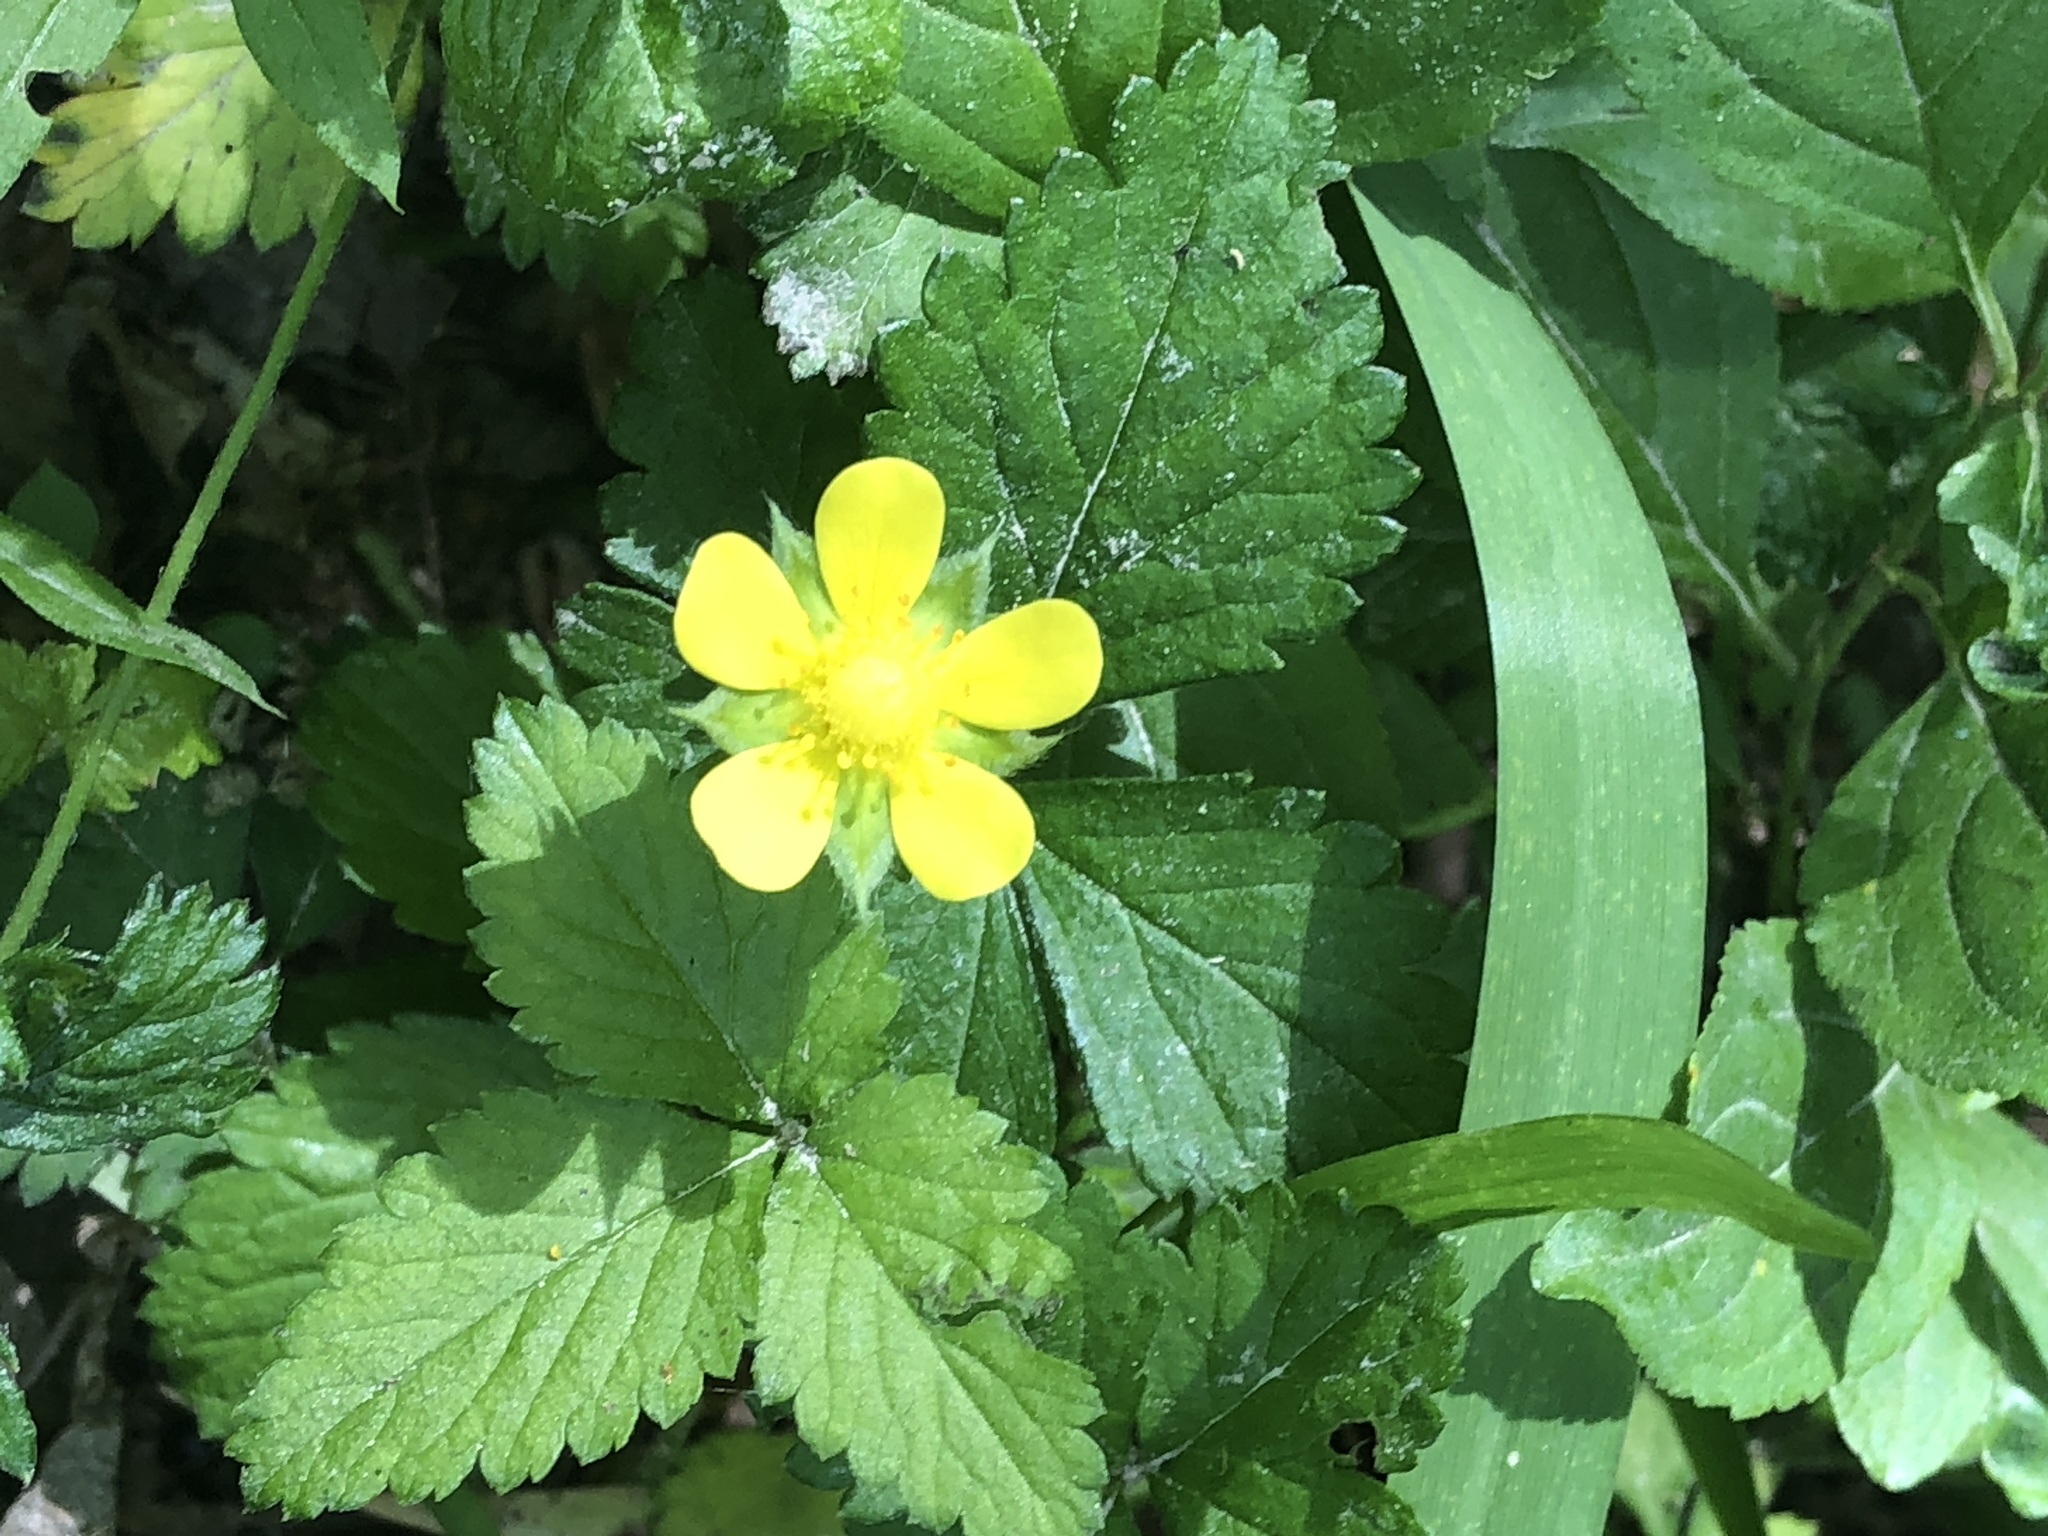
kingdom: Plantae
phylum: Tracheophyta
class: Magnoliopsida
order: Rosales
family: Rosaceae
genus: Potentilla
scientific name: Potentilla indica
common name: Yellow-flowered strawberry
